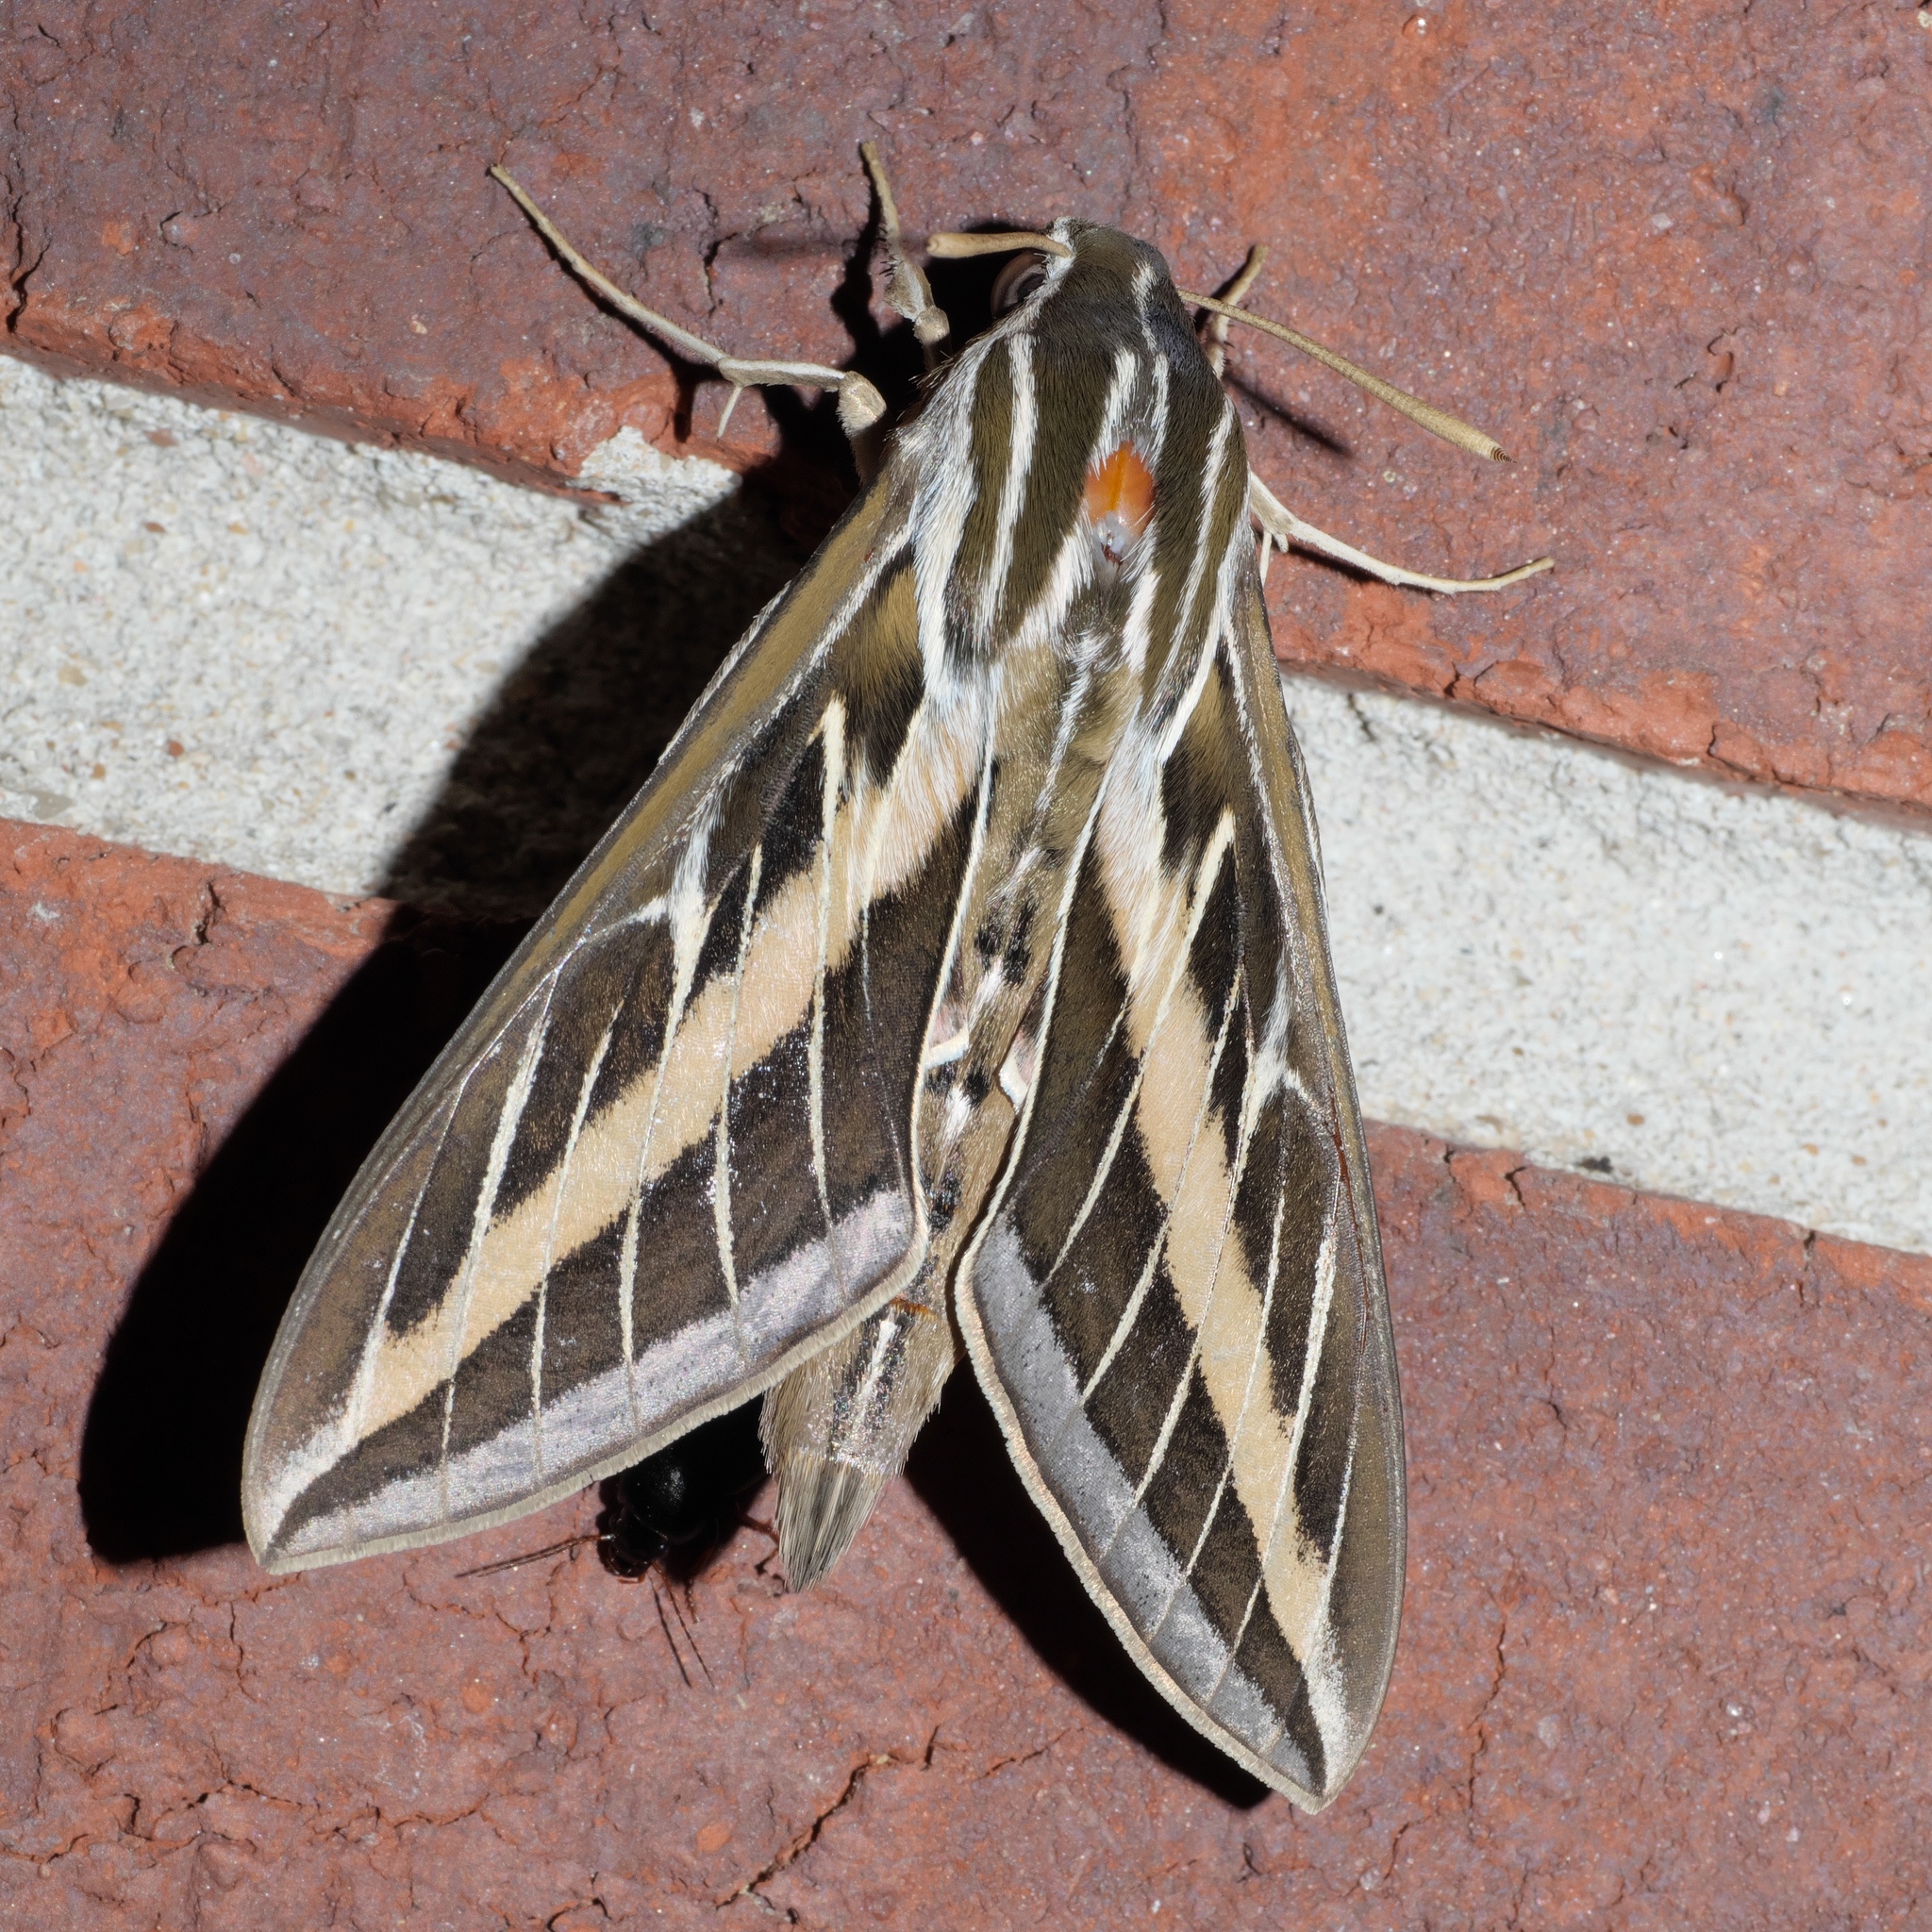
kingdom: Animalia
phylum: Arthropoda
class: Insecta
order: Lepidoptera
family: Sphingidae
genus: Hyles
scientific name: Hyles lineata
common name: White-lined sphinx
